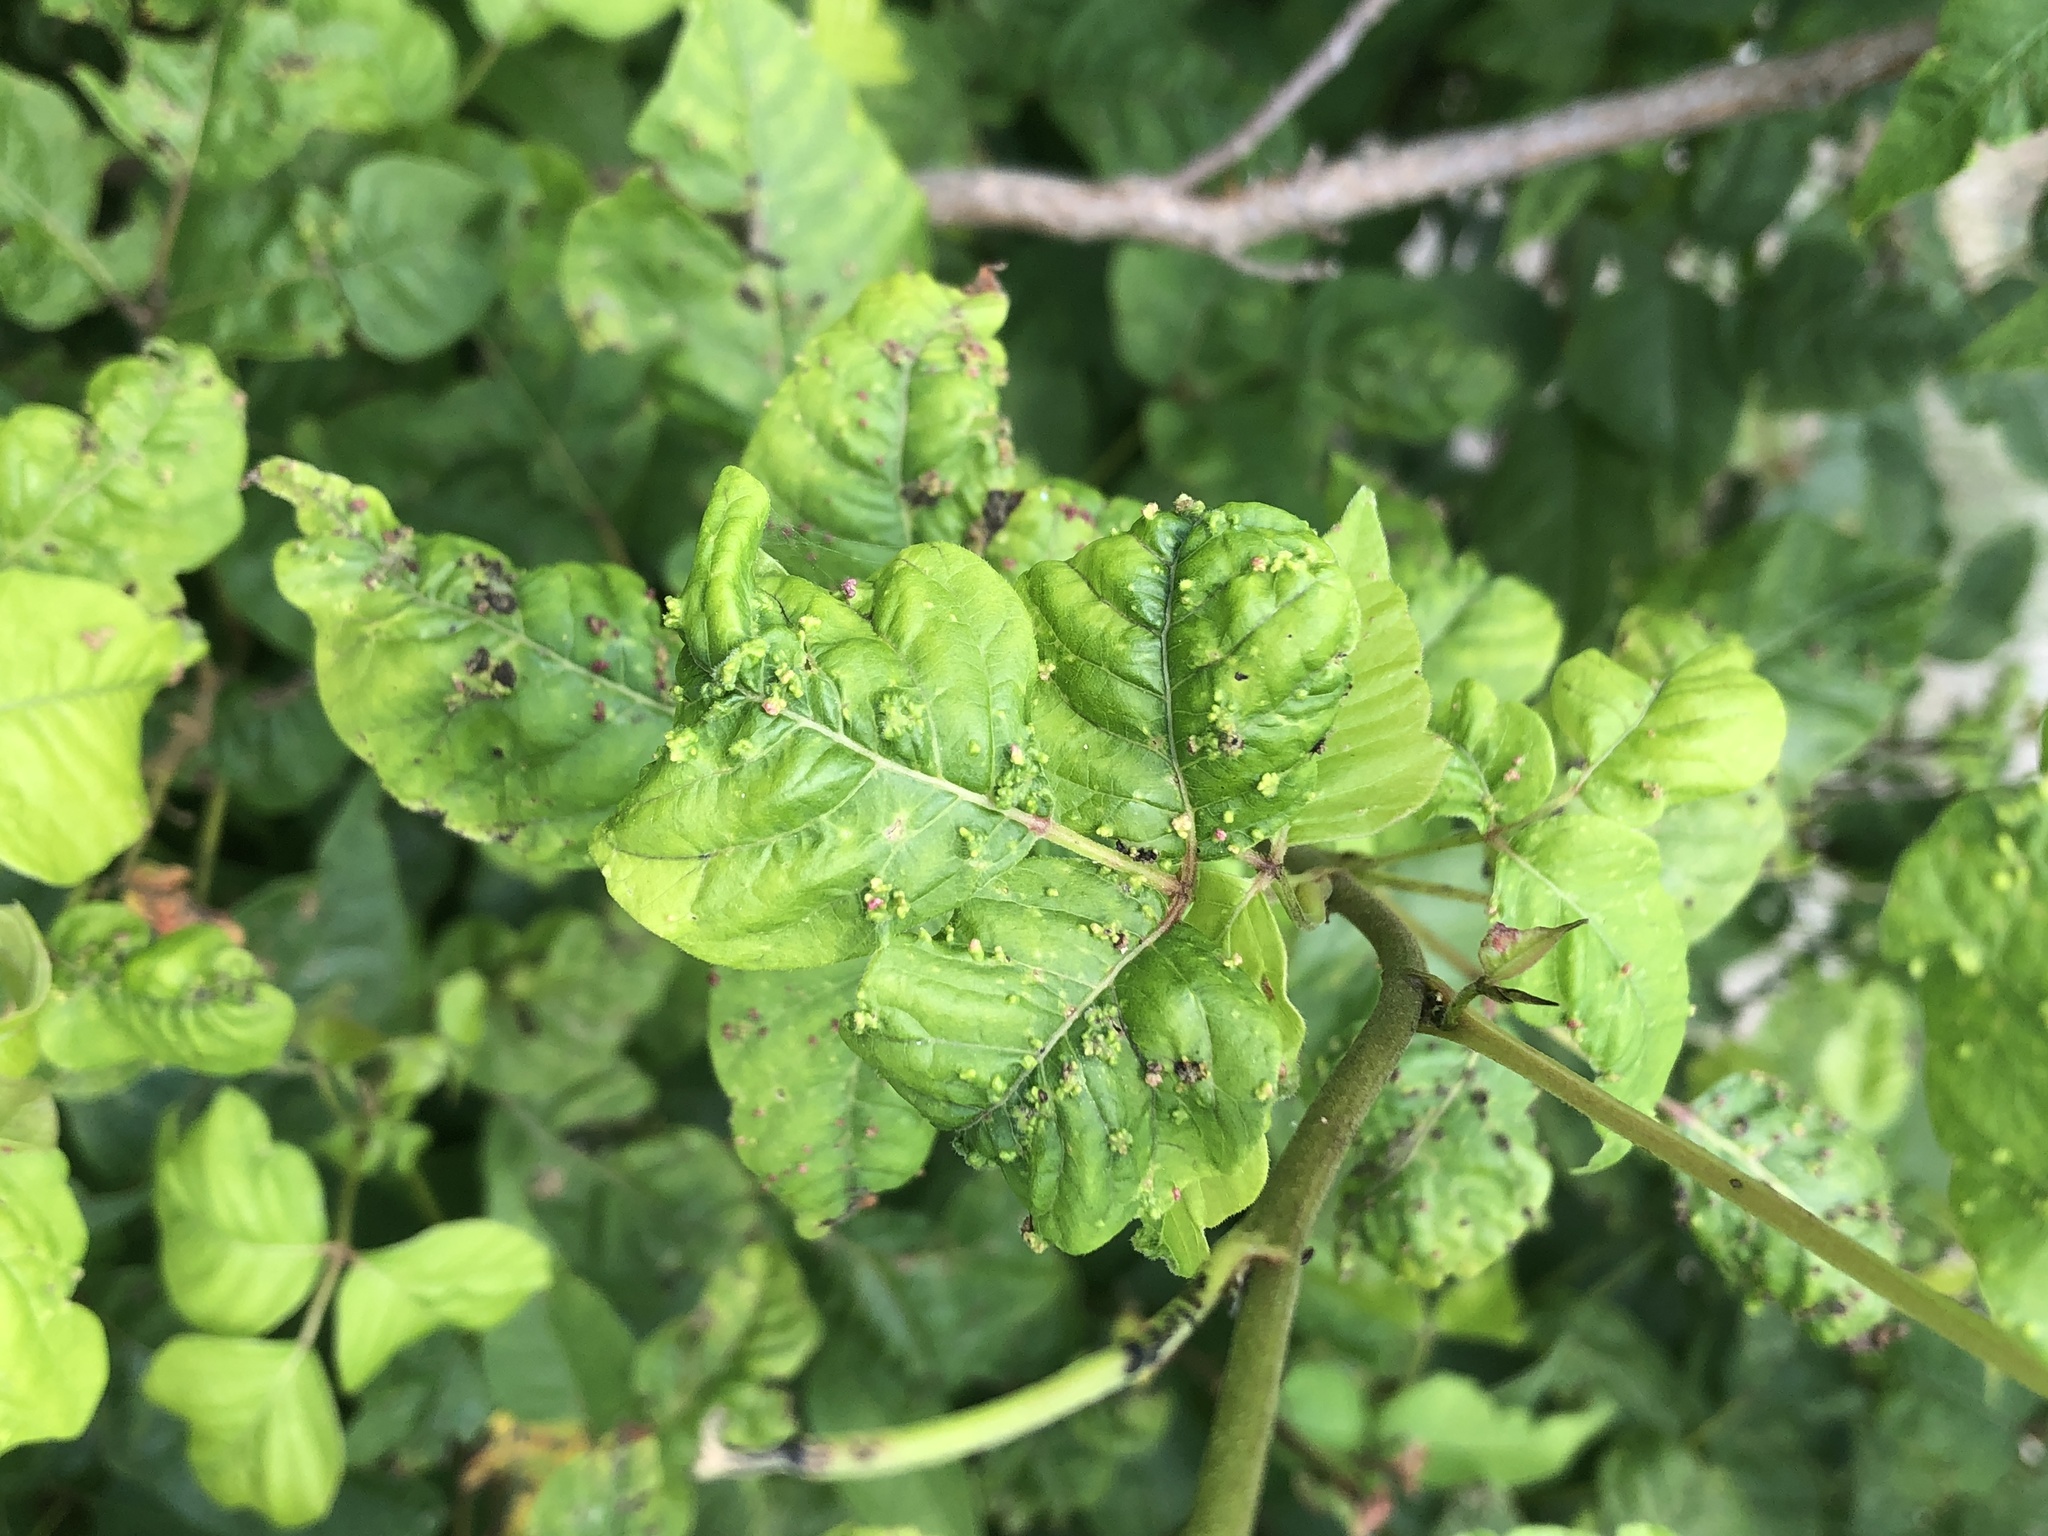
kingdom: Animalia
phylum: Arthropoda
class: Arachnida
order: Trombidiformes
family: Eriophyidae
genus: Aculops
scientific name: Aculops
